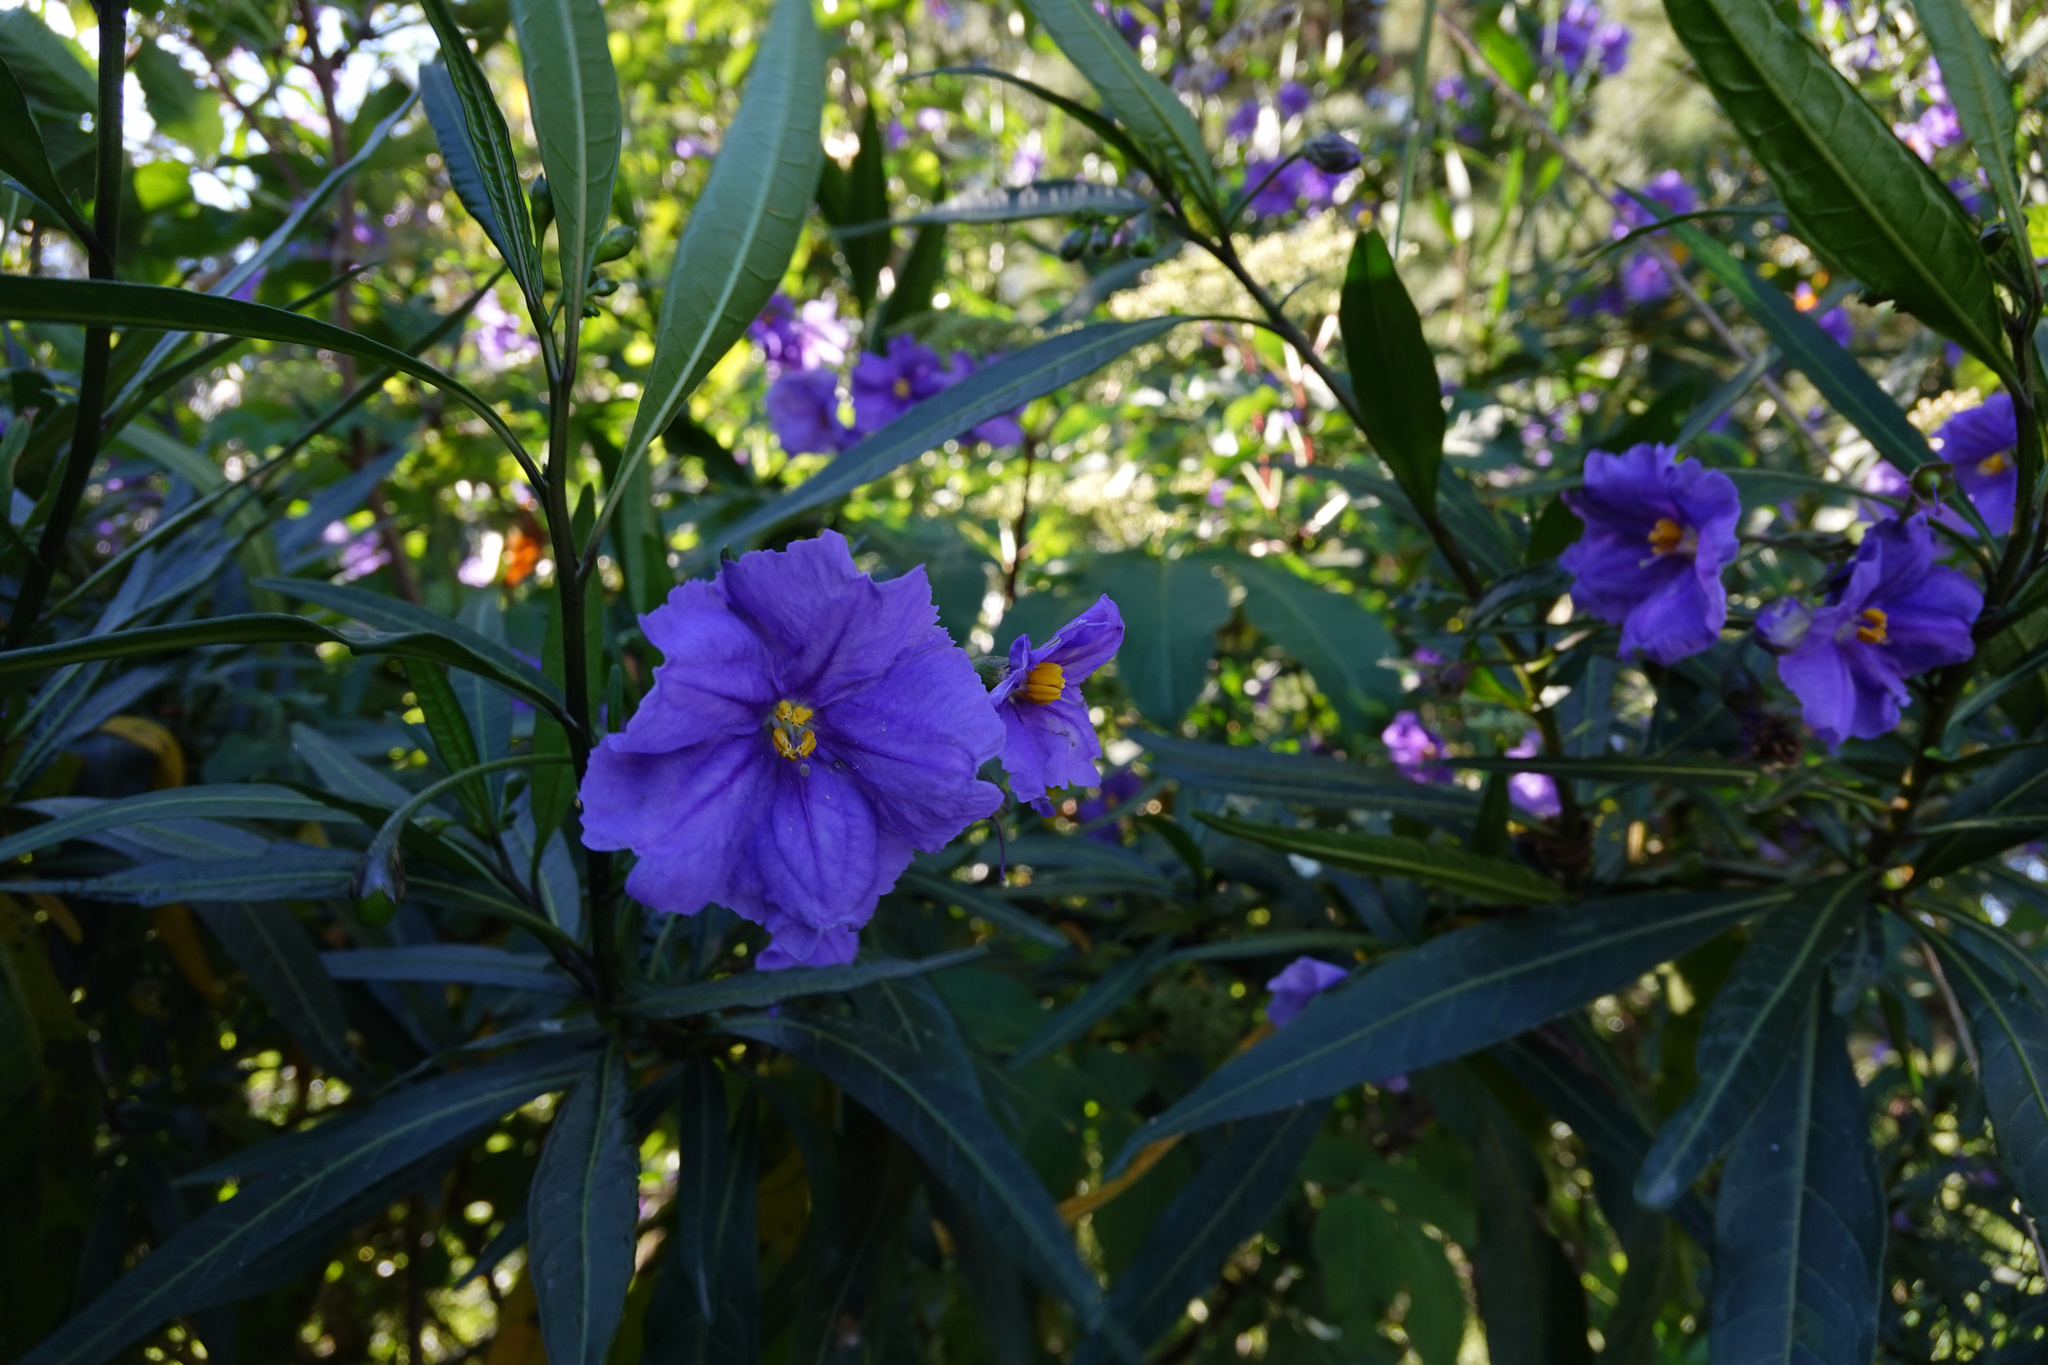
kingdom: Plantae
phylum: Tracheophyta
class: Magnoliopsida
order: Solanales
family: Solanaceae
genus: Solanum
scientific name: Solanum laciniatum
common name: Kangaroo-apple
